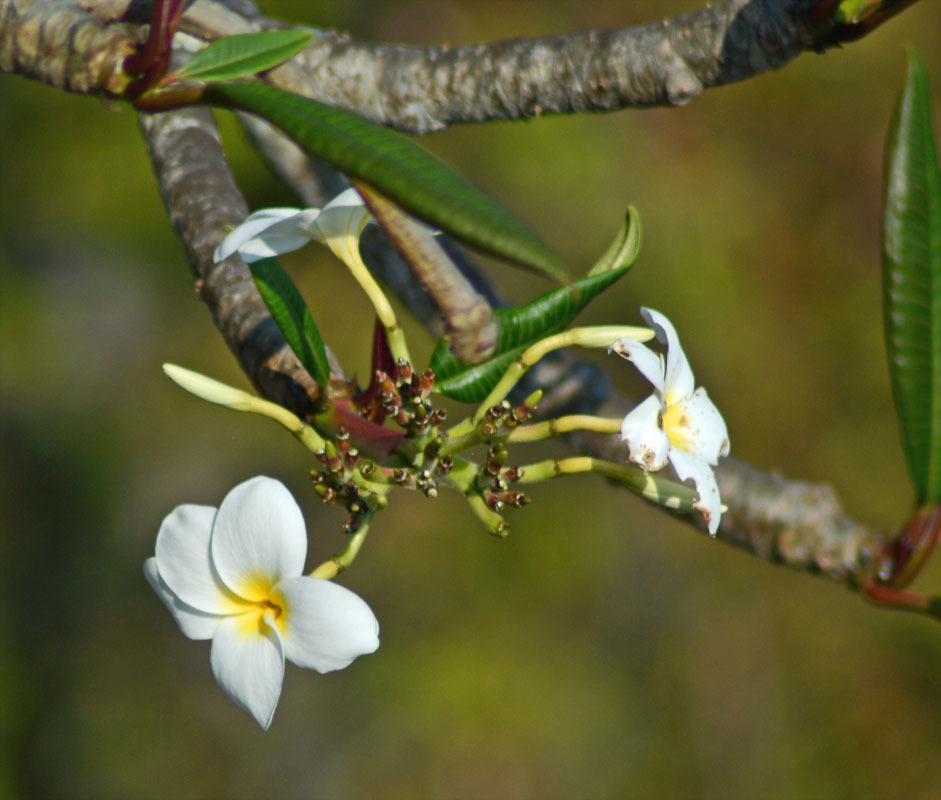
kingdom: Plantae
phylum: Tracheophyta
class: Magnoliopsida
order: Gentianales
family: Apocynaceae
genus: Plumeria
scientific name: Plumeria rubra
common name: Pagoda-tree
